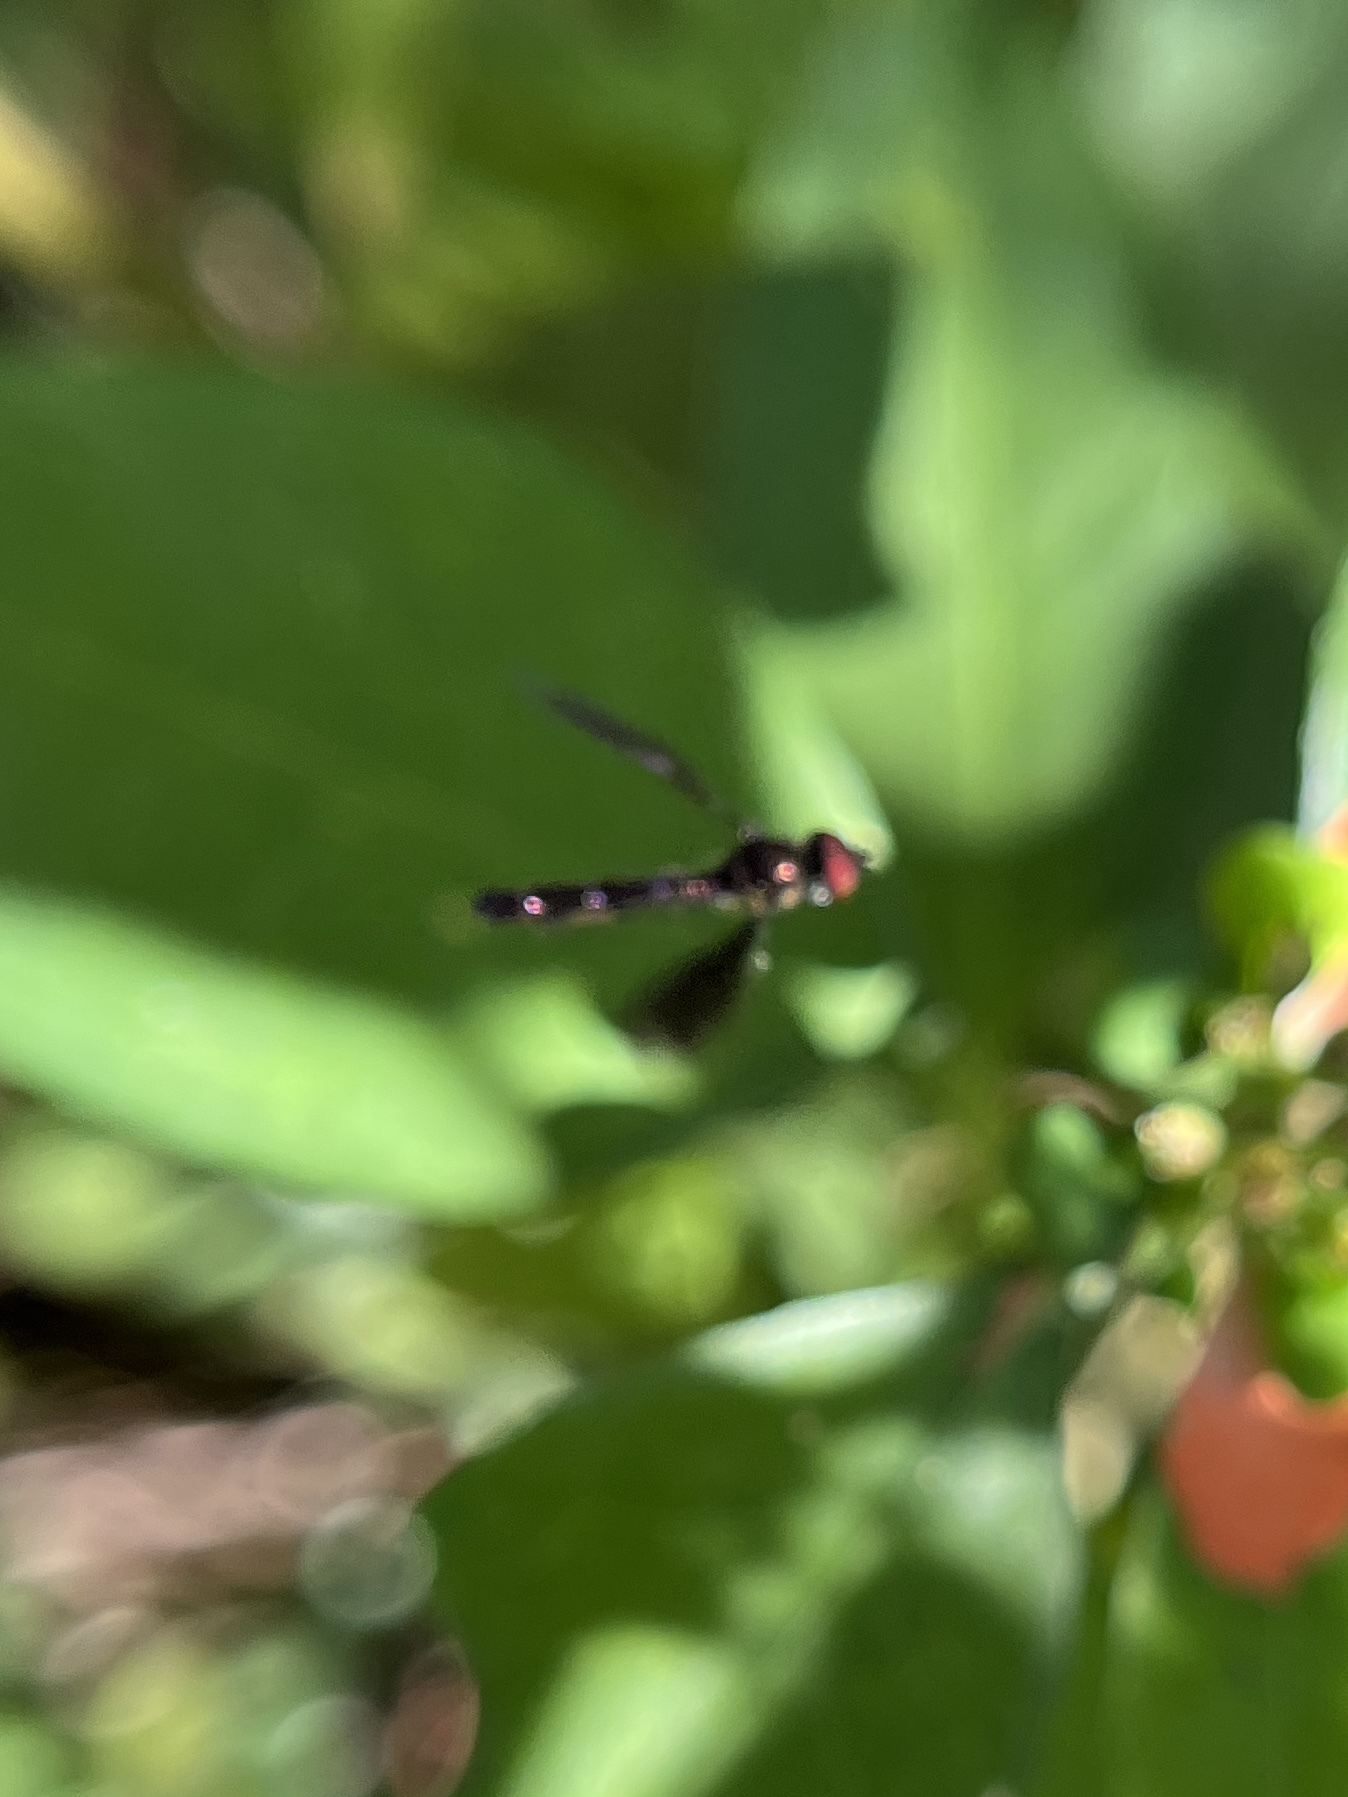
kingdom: Animalia
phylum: Arthropoda
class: Insecta
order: Diptera
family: Syrphidae
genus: Ocyptamus
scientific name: Ocyptamus fuscipennis
